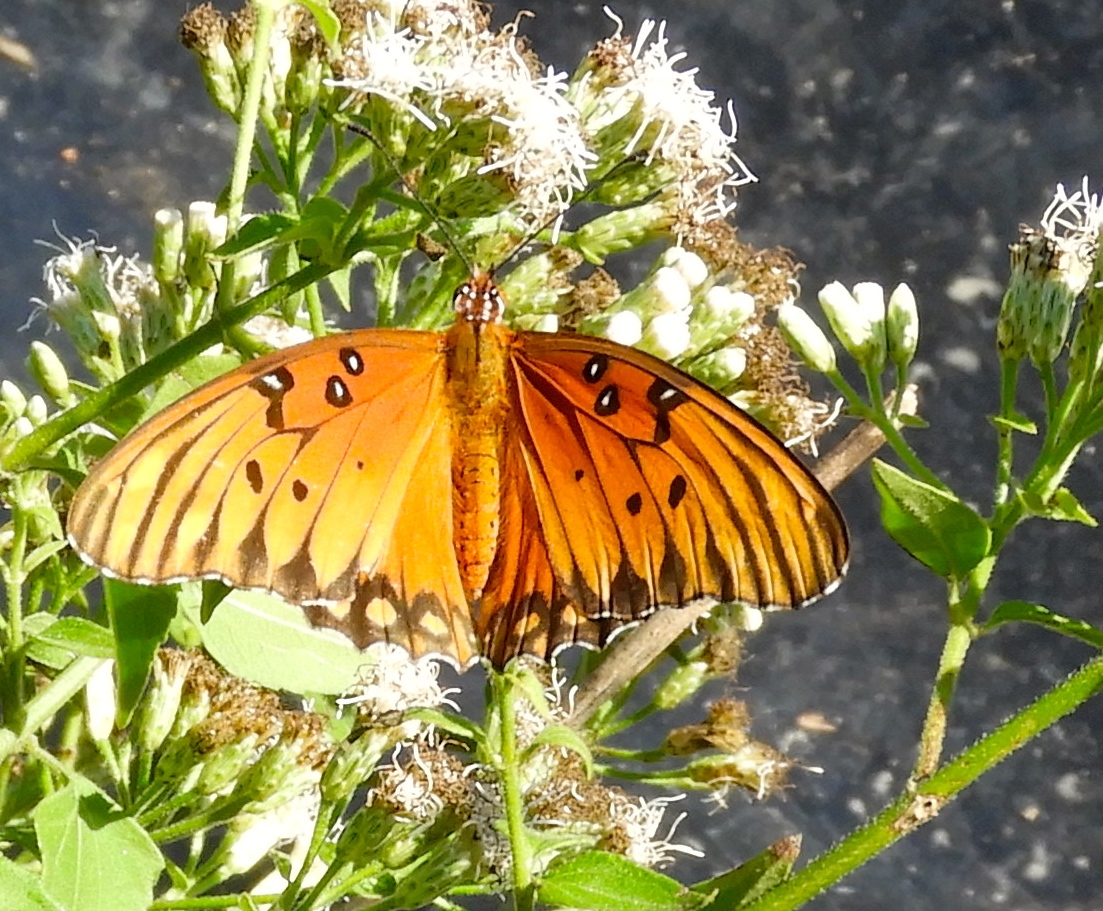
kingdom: Animalia
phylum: Arthropoda
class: Insecta
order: Lepidoptera
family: Nymphalidae
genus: Dione
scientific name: Dione vanillae
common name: Gulf fritillary
